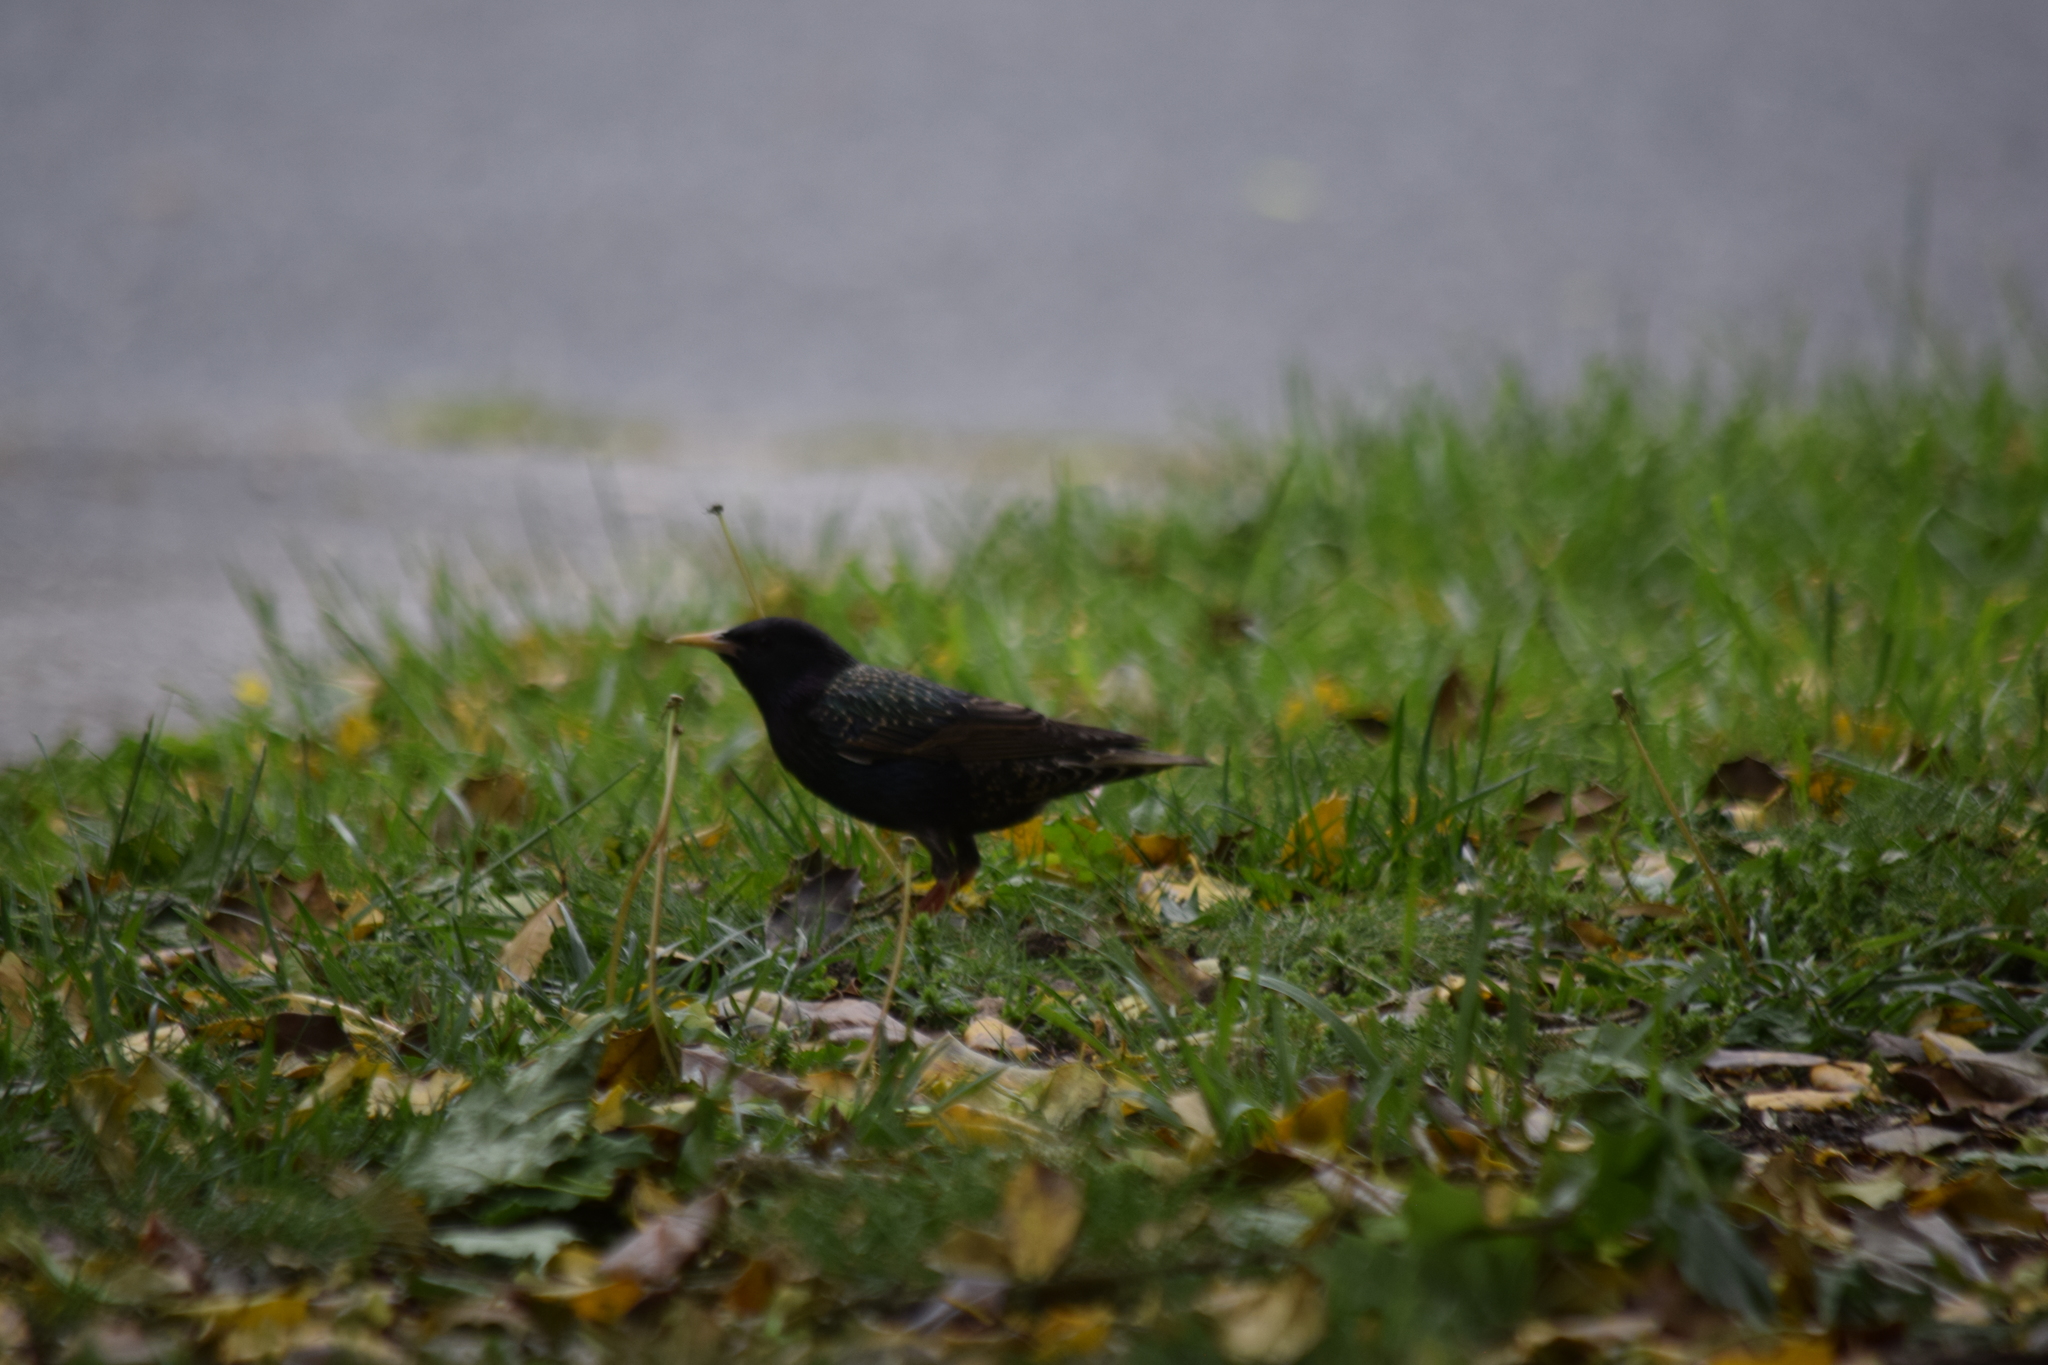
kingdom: Animalia
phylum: Chordata
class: Aves
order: Passeriformes
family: Sturnidae
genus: Sturnus
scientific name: Sturnus vulgaris
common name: Common starling
